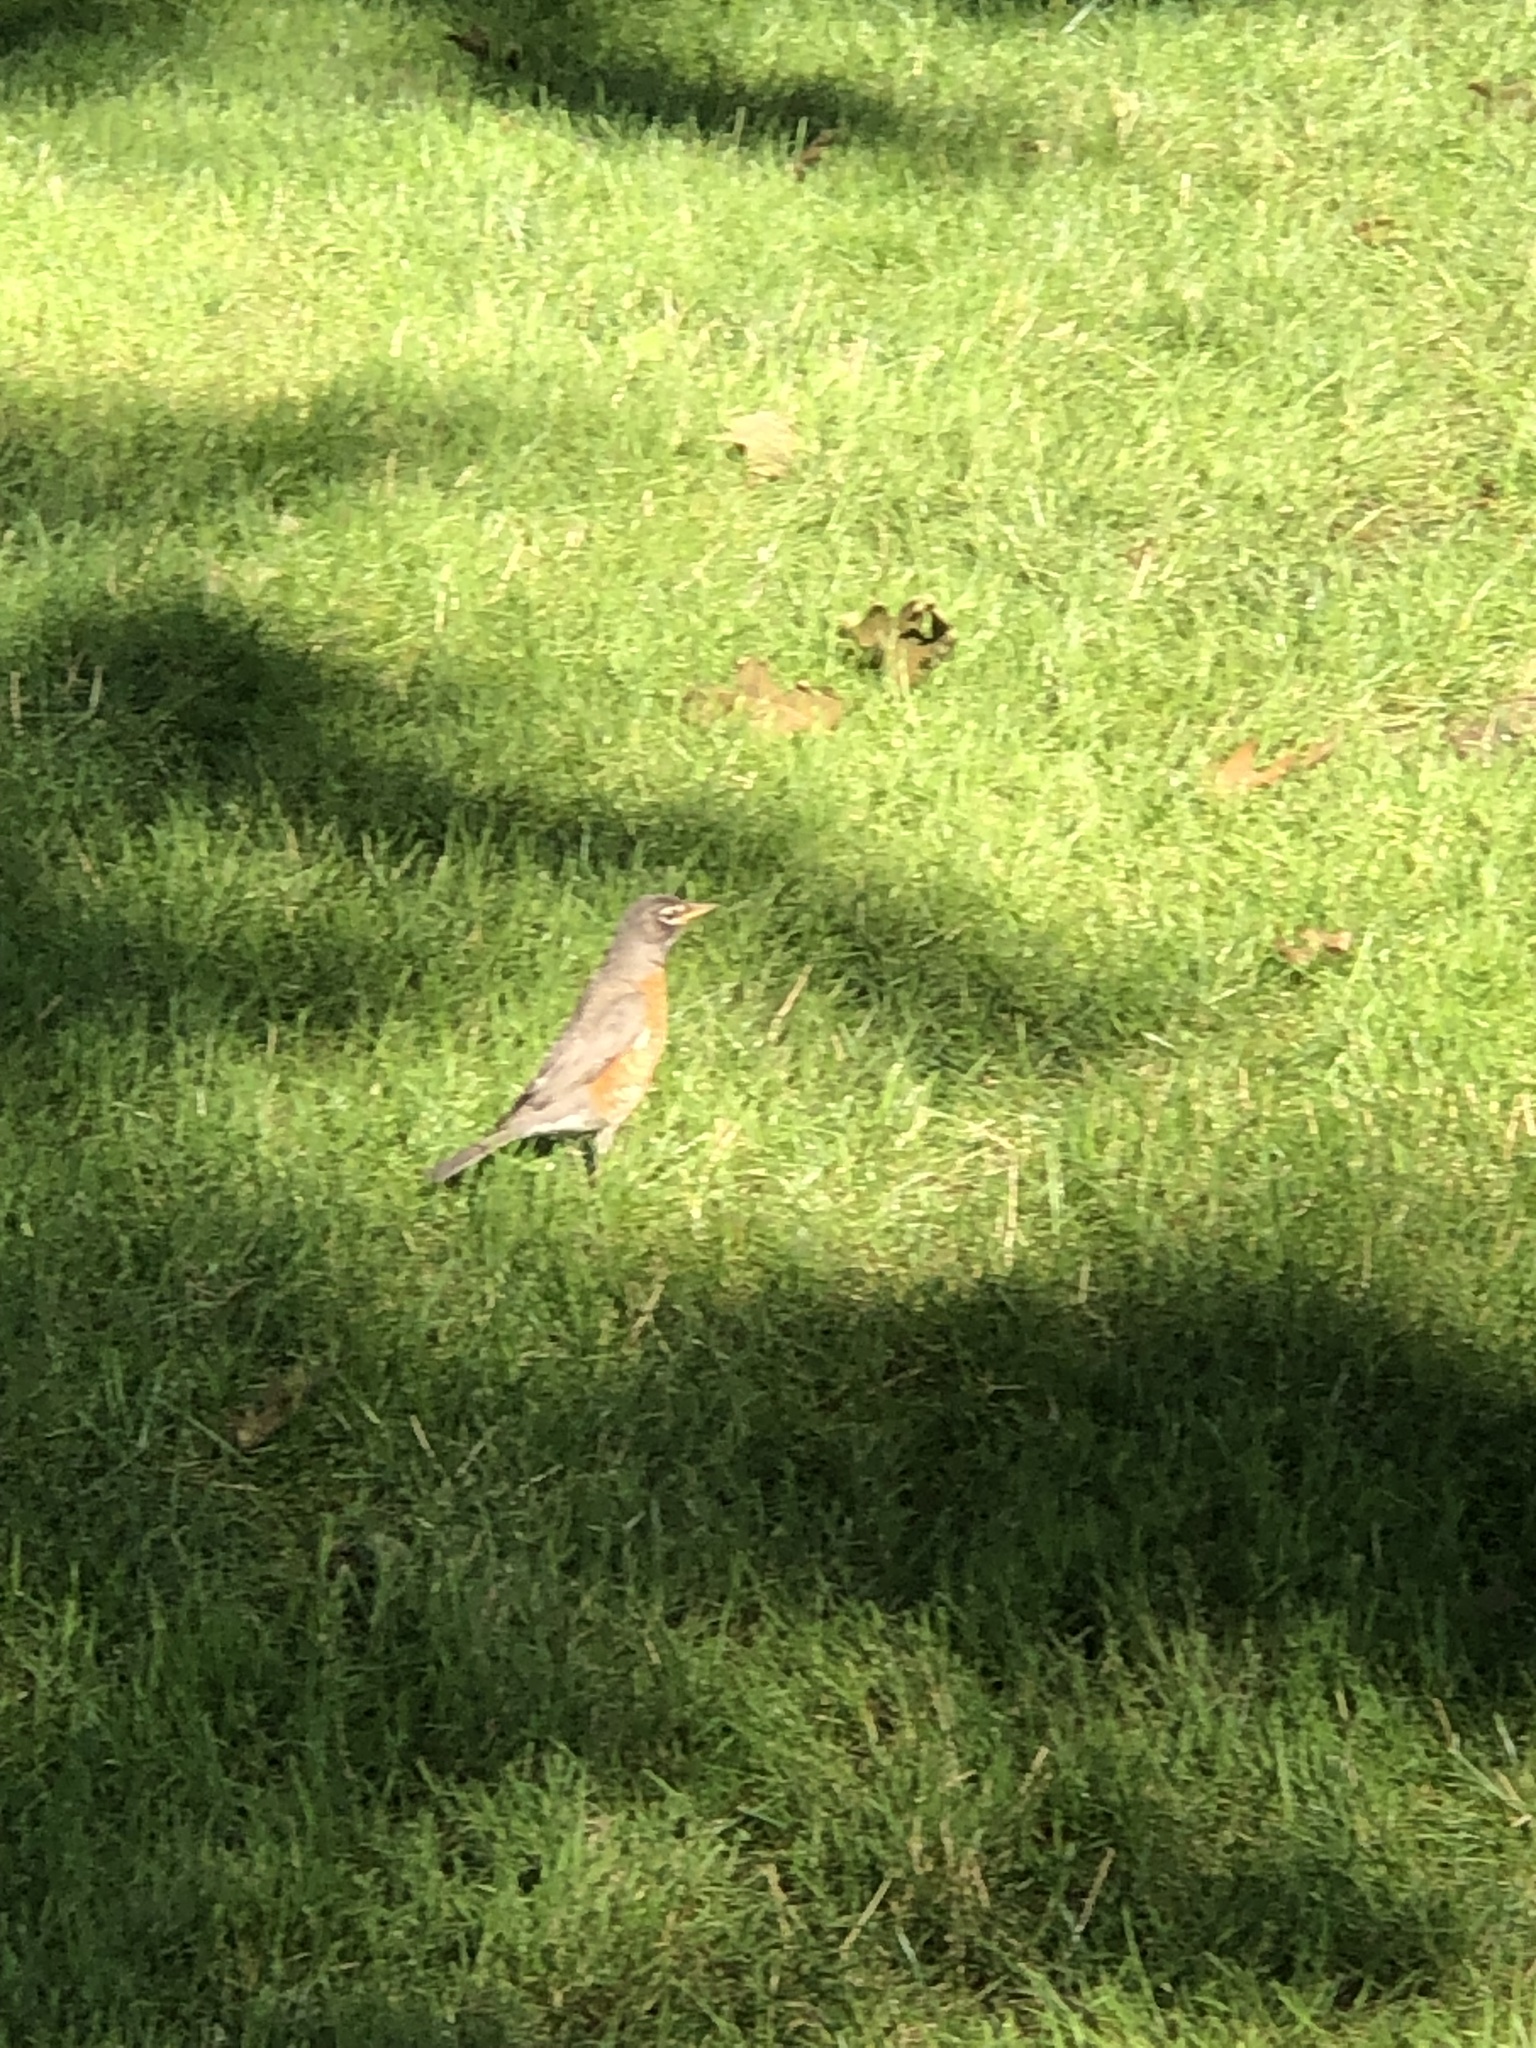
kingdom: Animalia
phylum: Chordata
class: Aves
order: Passeriformes
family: Turdidae
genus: Turdus
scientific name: Turdus migratorius
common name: American robin
